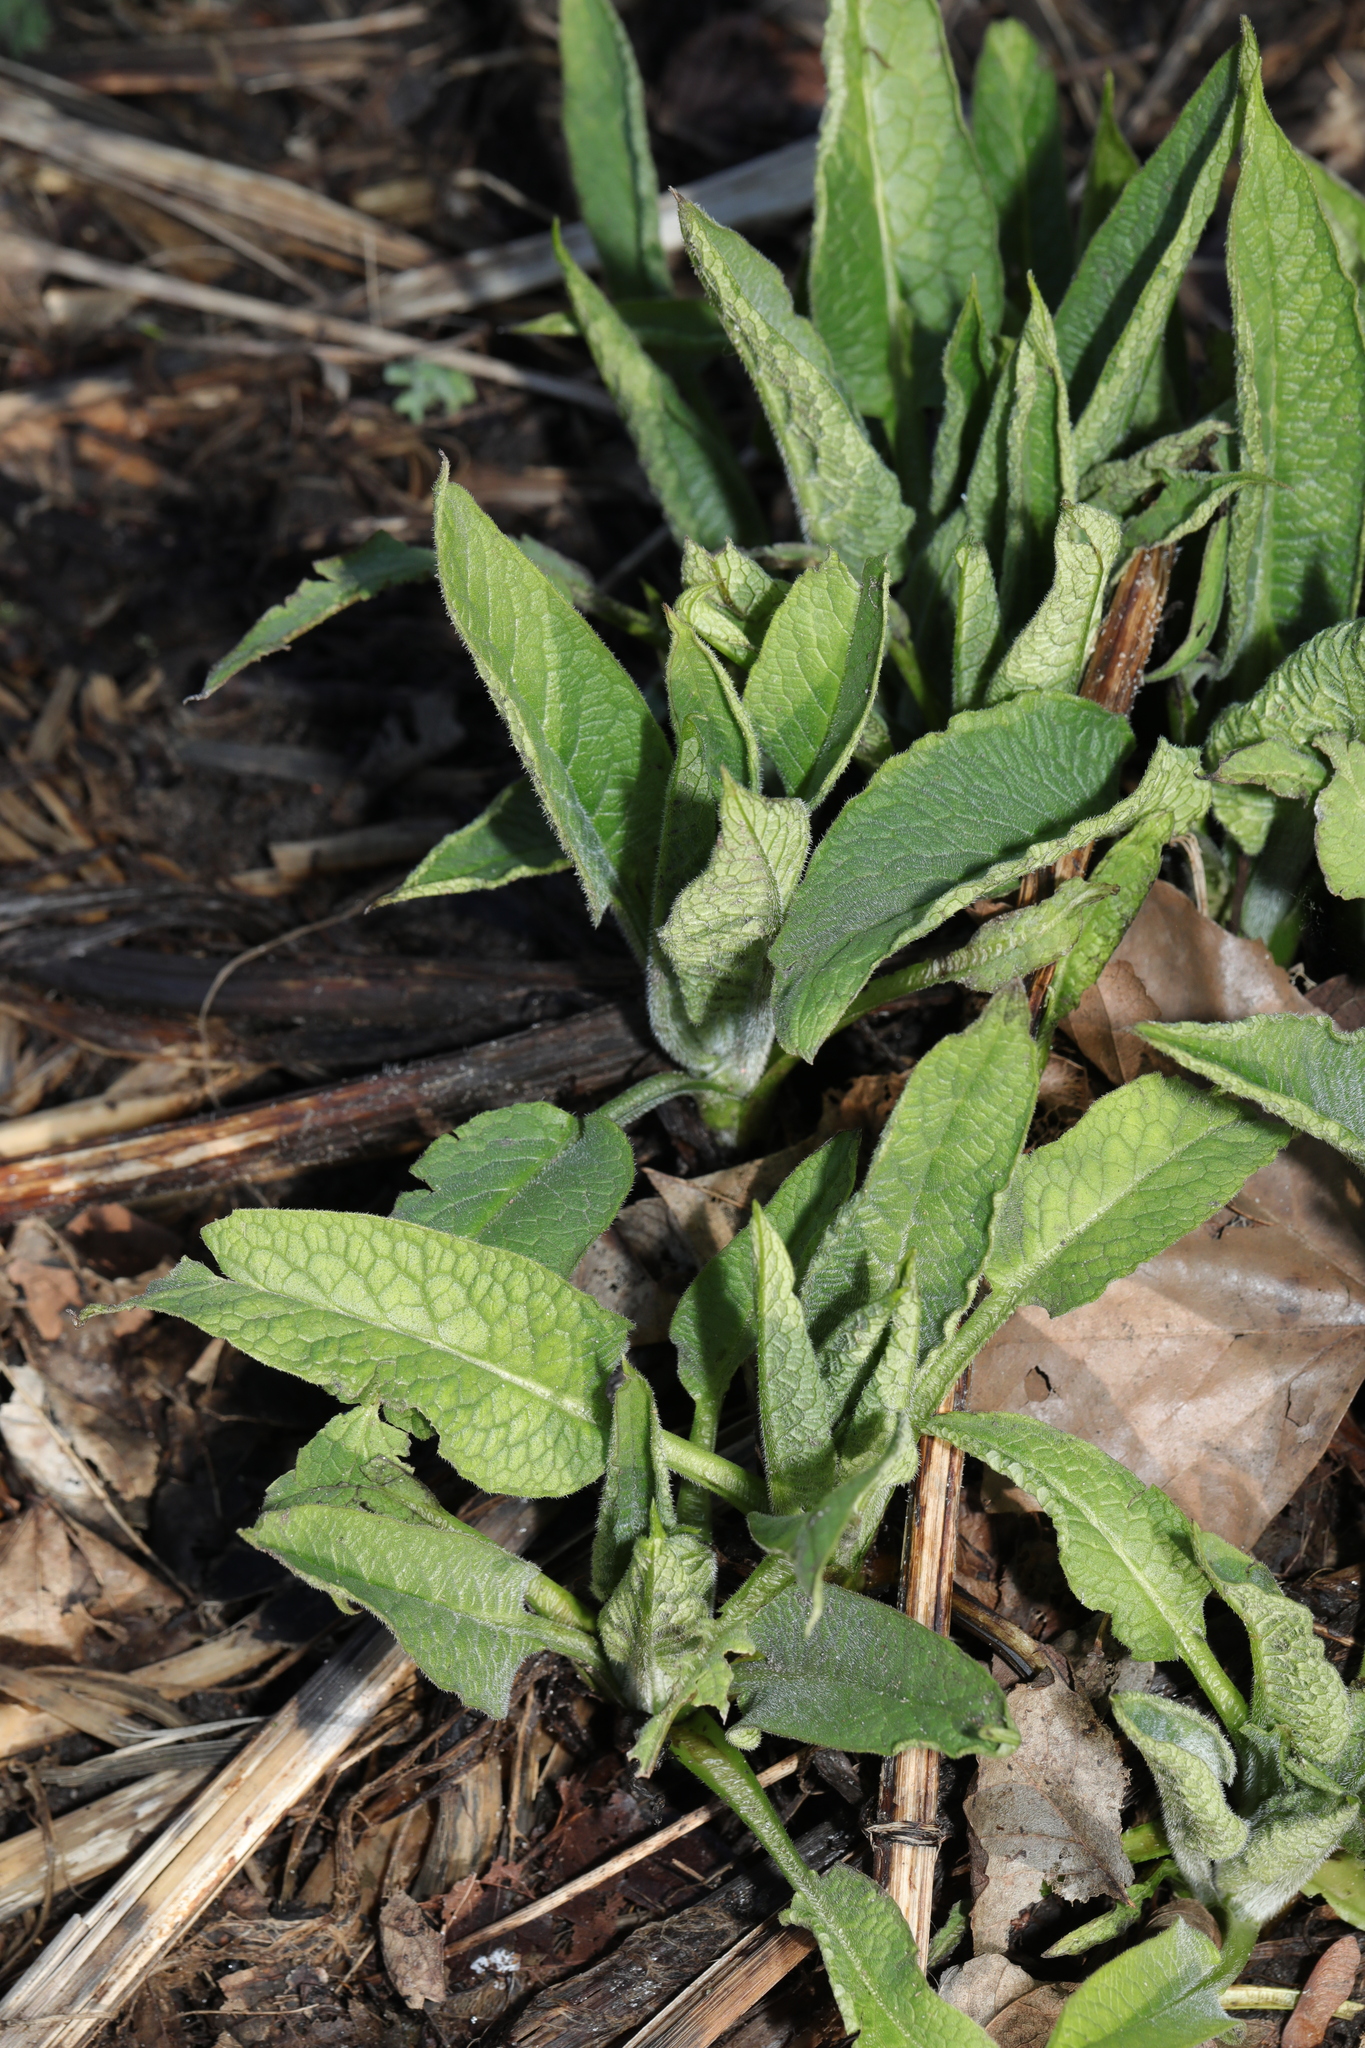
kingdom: Plantae
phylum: Tracheophyta
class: Magnoliopsida
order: Boraginales
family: Boraginaceae
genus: Symphytum
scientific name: Symphytum uplandicum
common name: Russian comfrey
